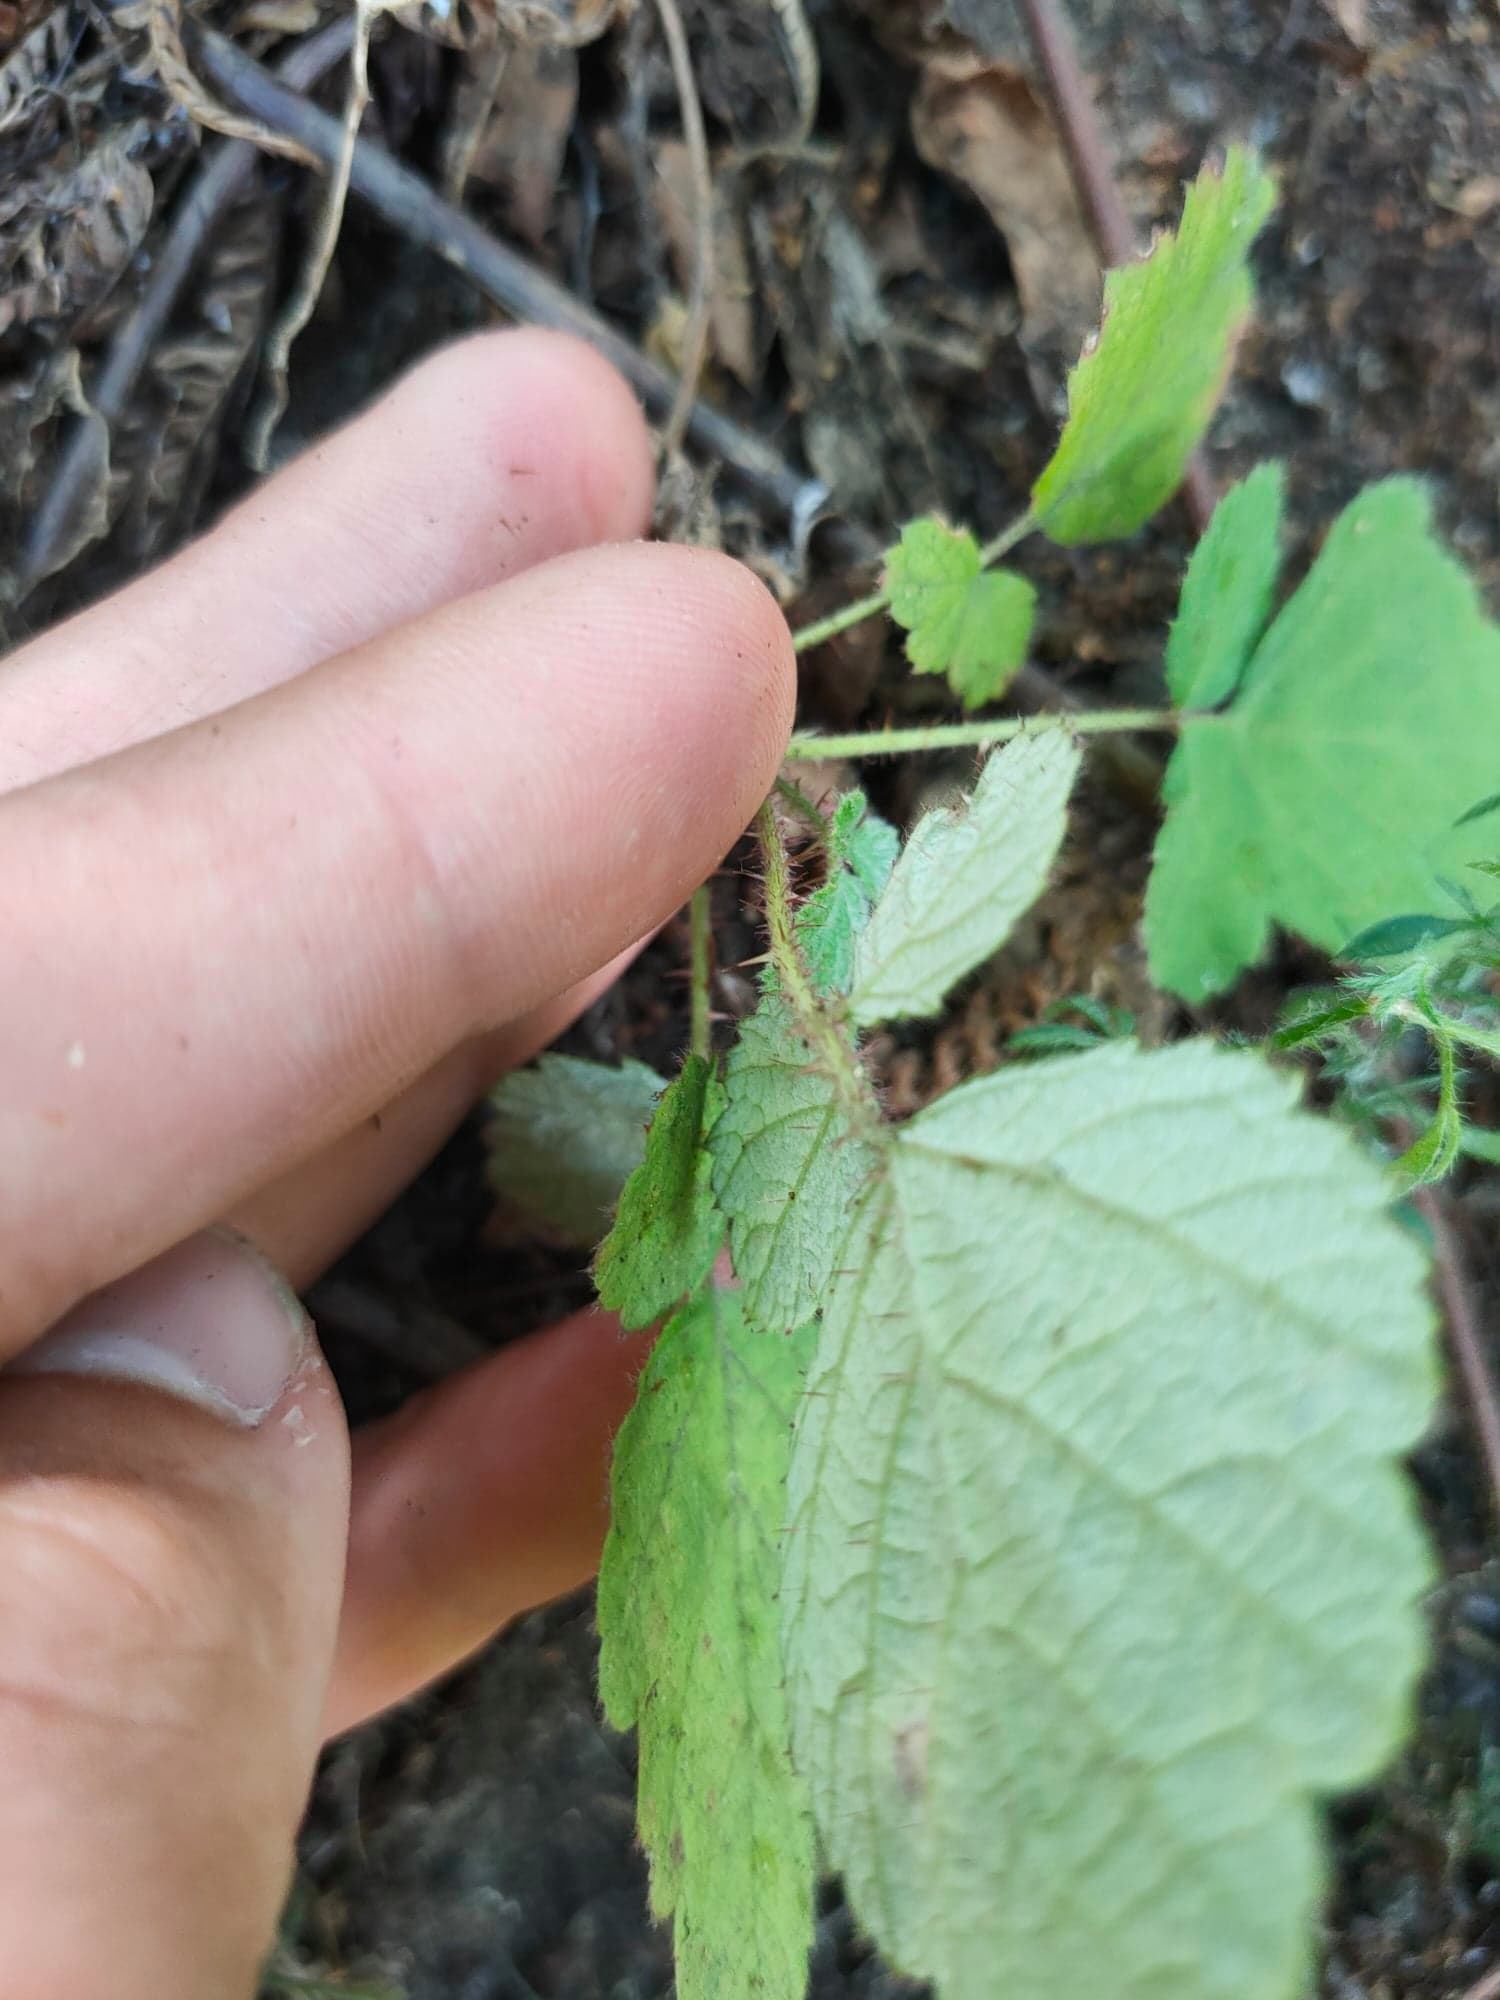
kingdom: Plantae
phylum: Tracheophyta
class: Magnoliopsida
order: Rosales
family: Rosaceae
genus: Rubus
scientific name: Rubus phoenicolasius
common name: Japanese wineberry
